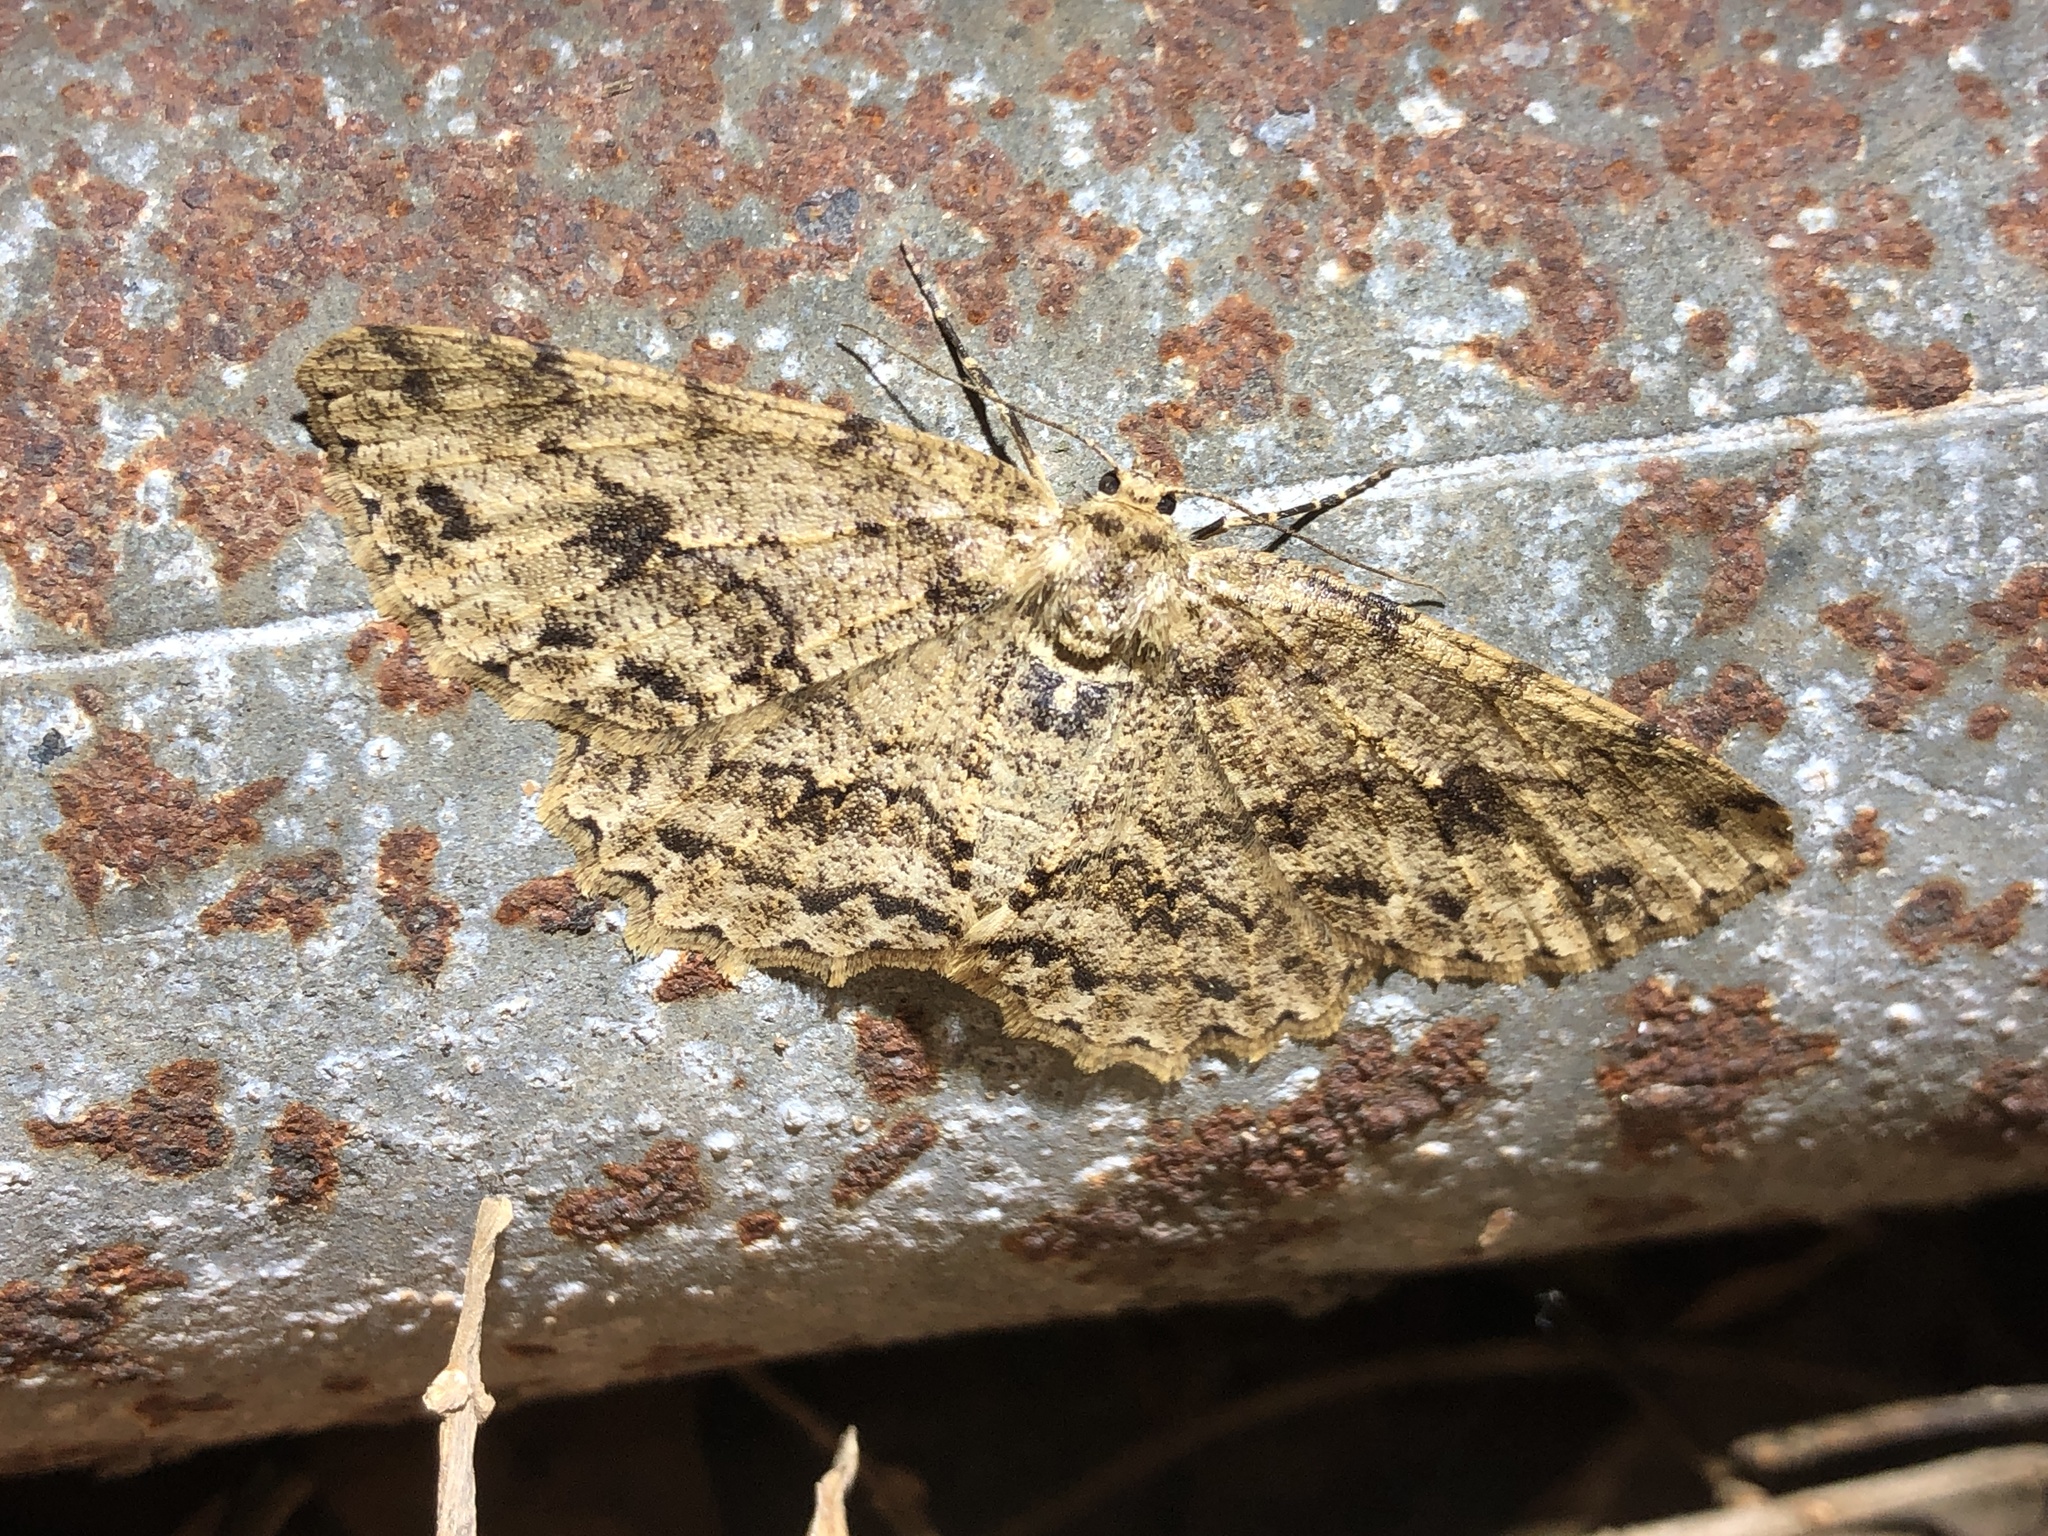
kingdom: Animalia
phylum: Arthropoda
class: Insecta
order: Lepidoptera
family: Geometridae
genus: Ectropis
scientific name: Ectropis bhurmitra
